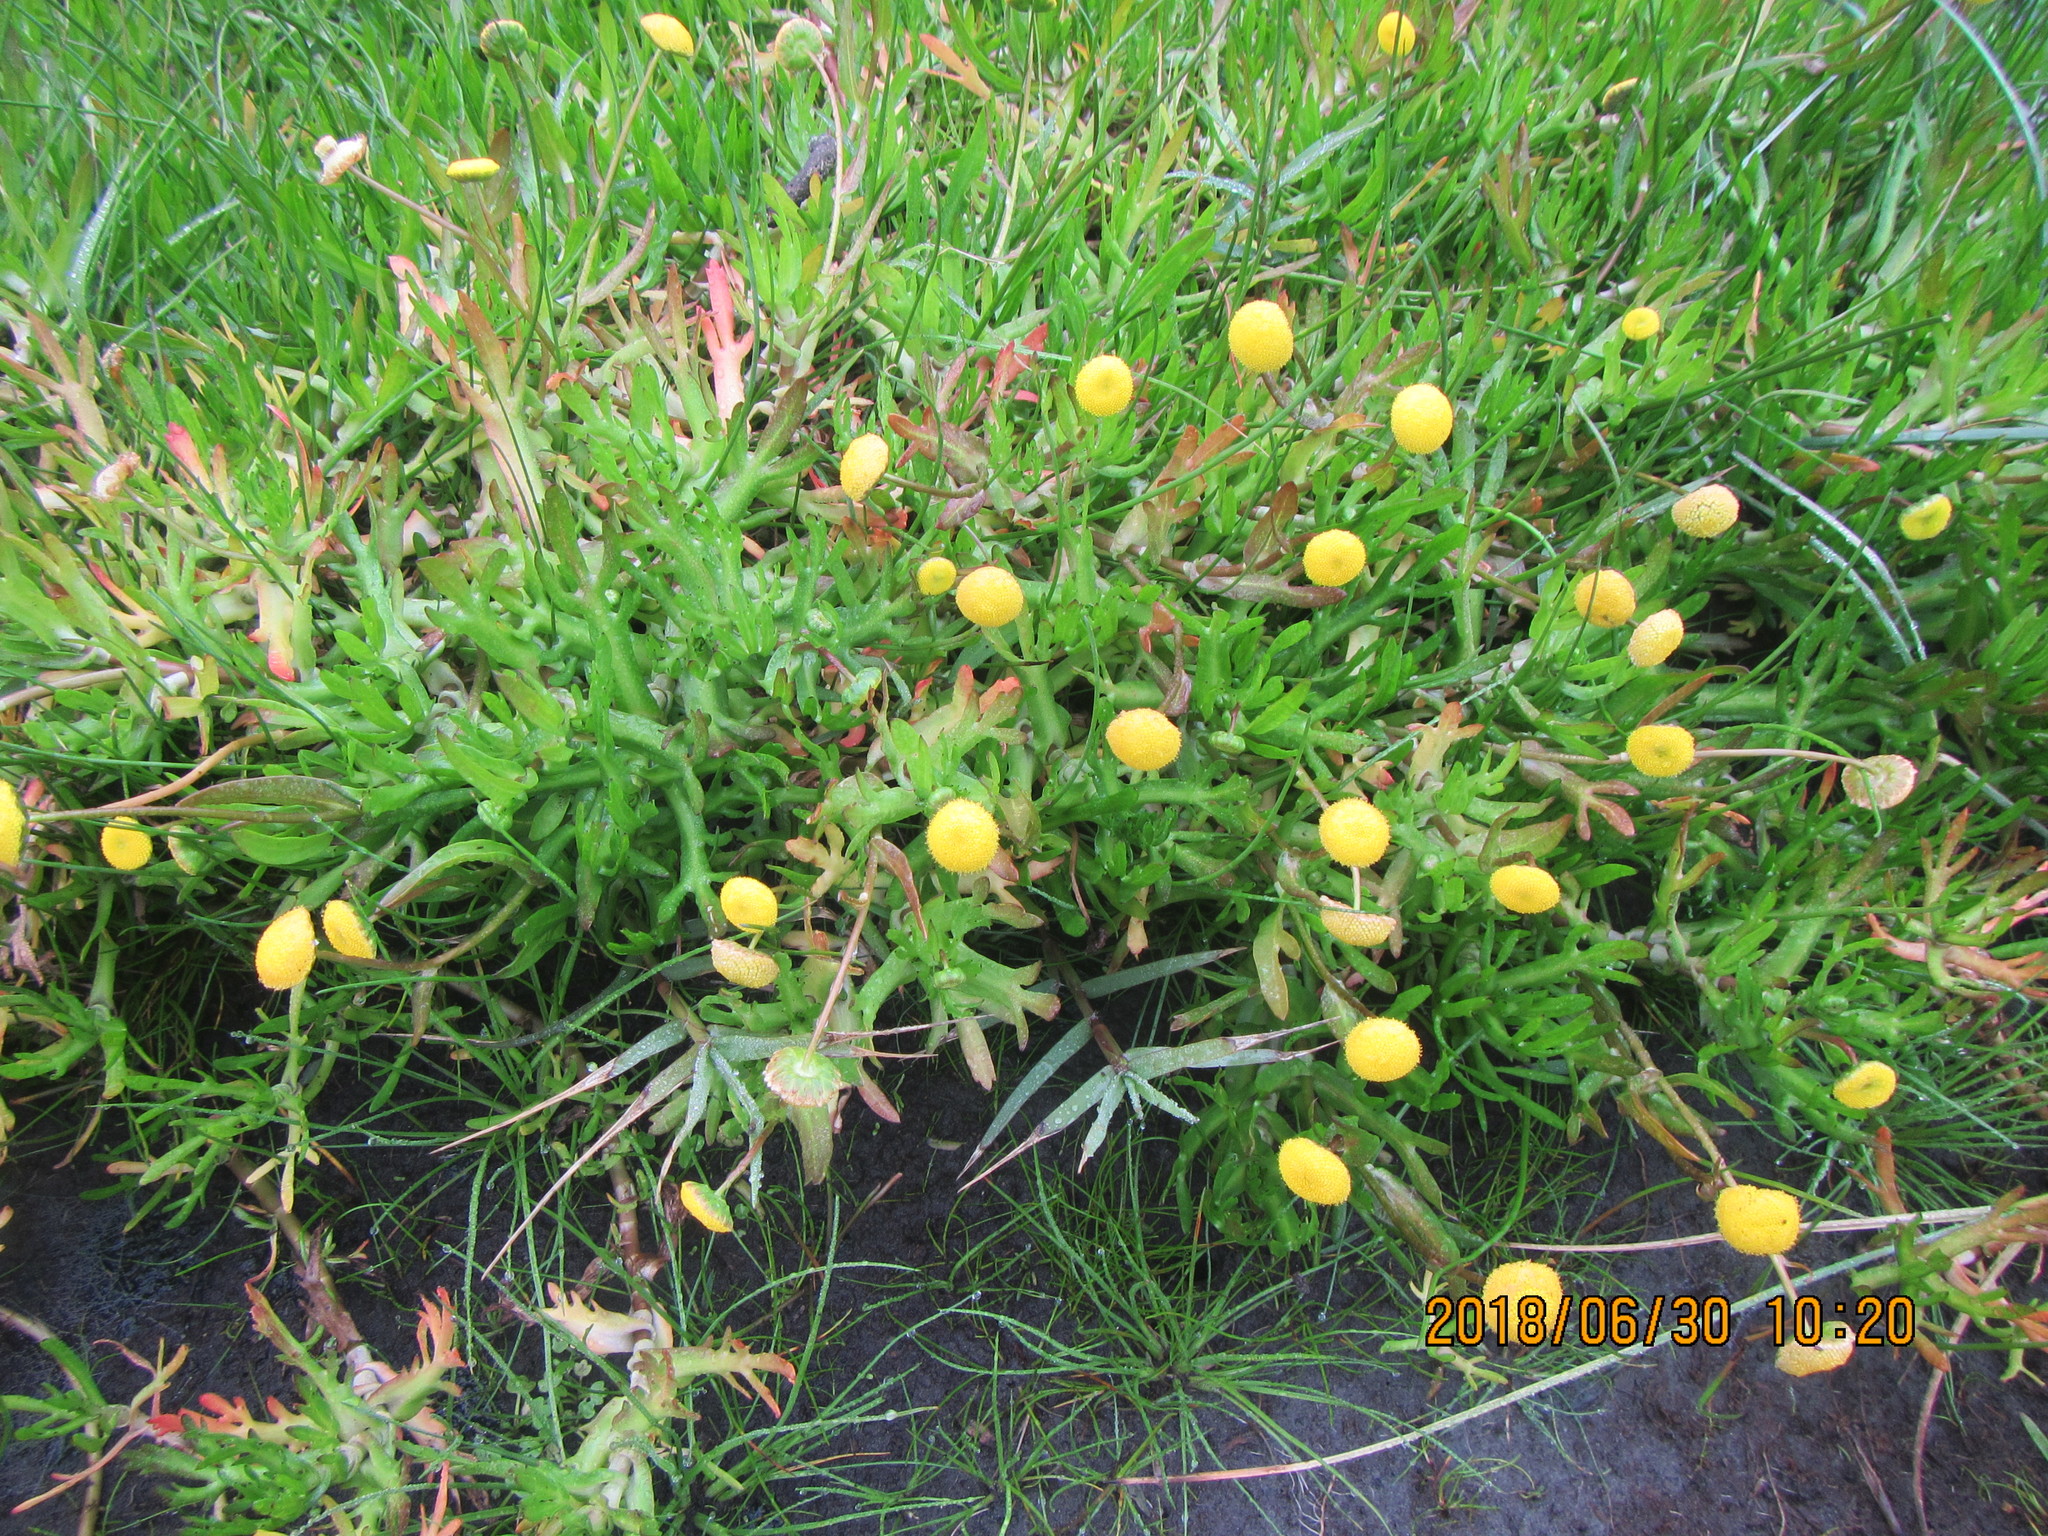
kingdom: Plantae
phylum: Tracheophyta
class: Magnoliopsida
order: Asterales
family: Asteraceae
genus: Cotula
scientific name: Cotula coronopifolia
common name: Buttonweed
